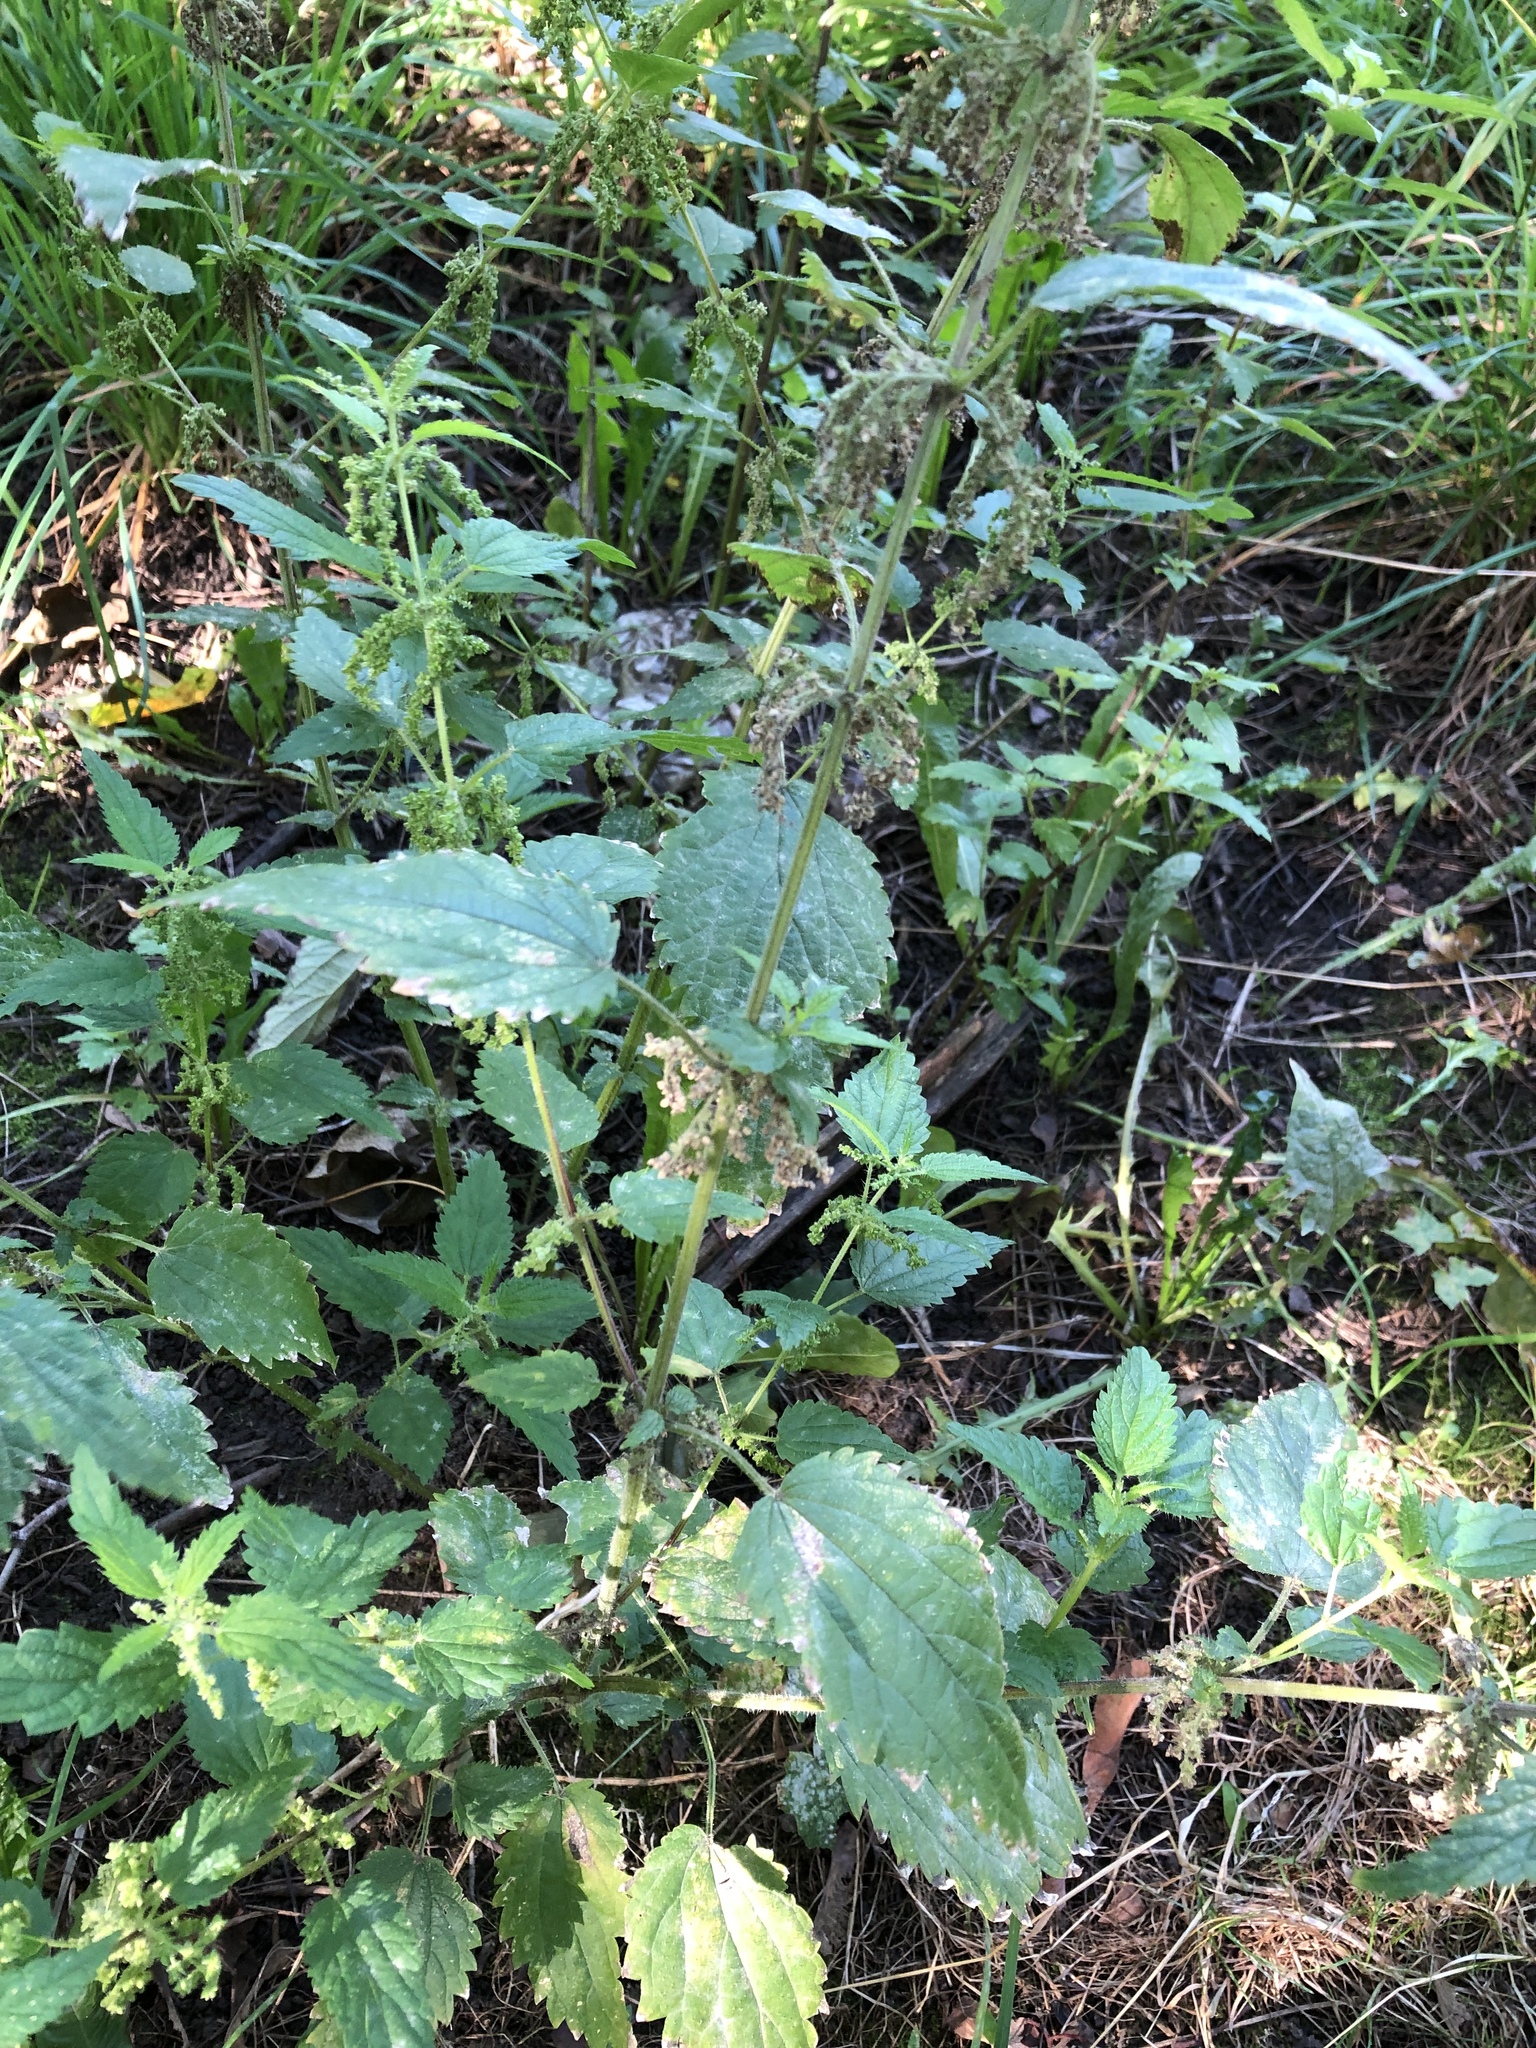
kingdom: Plantae
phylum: Tracheophyta
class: Magnoliopsida
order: Rosales
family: Urticaceae
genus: Urtica
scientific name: Urtica dioica
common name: Common nettle
